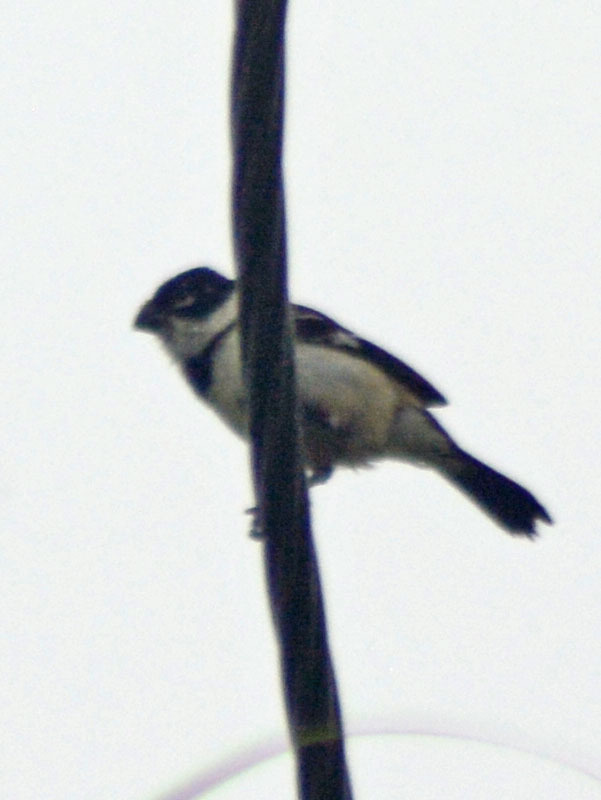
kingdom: Animalia
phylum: Chordata
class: Aves
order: Passeriformes
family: Thraupidae
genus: Sporophila
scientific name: Sporophila morelleti
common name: Morelet's seedeater
